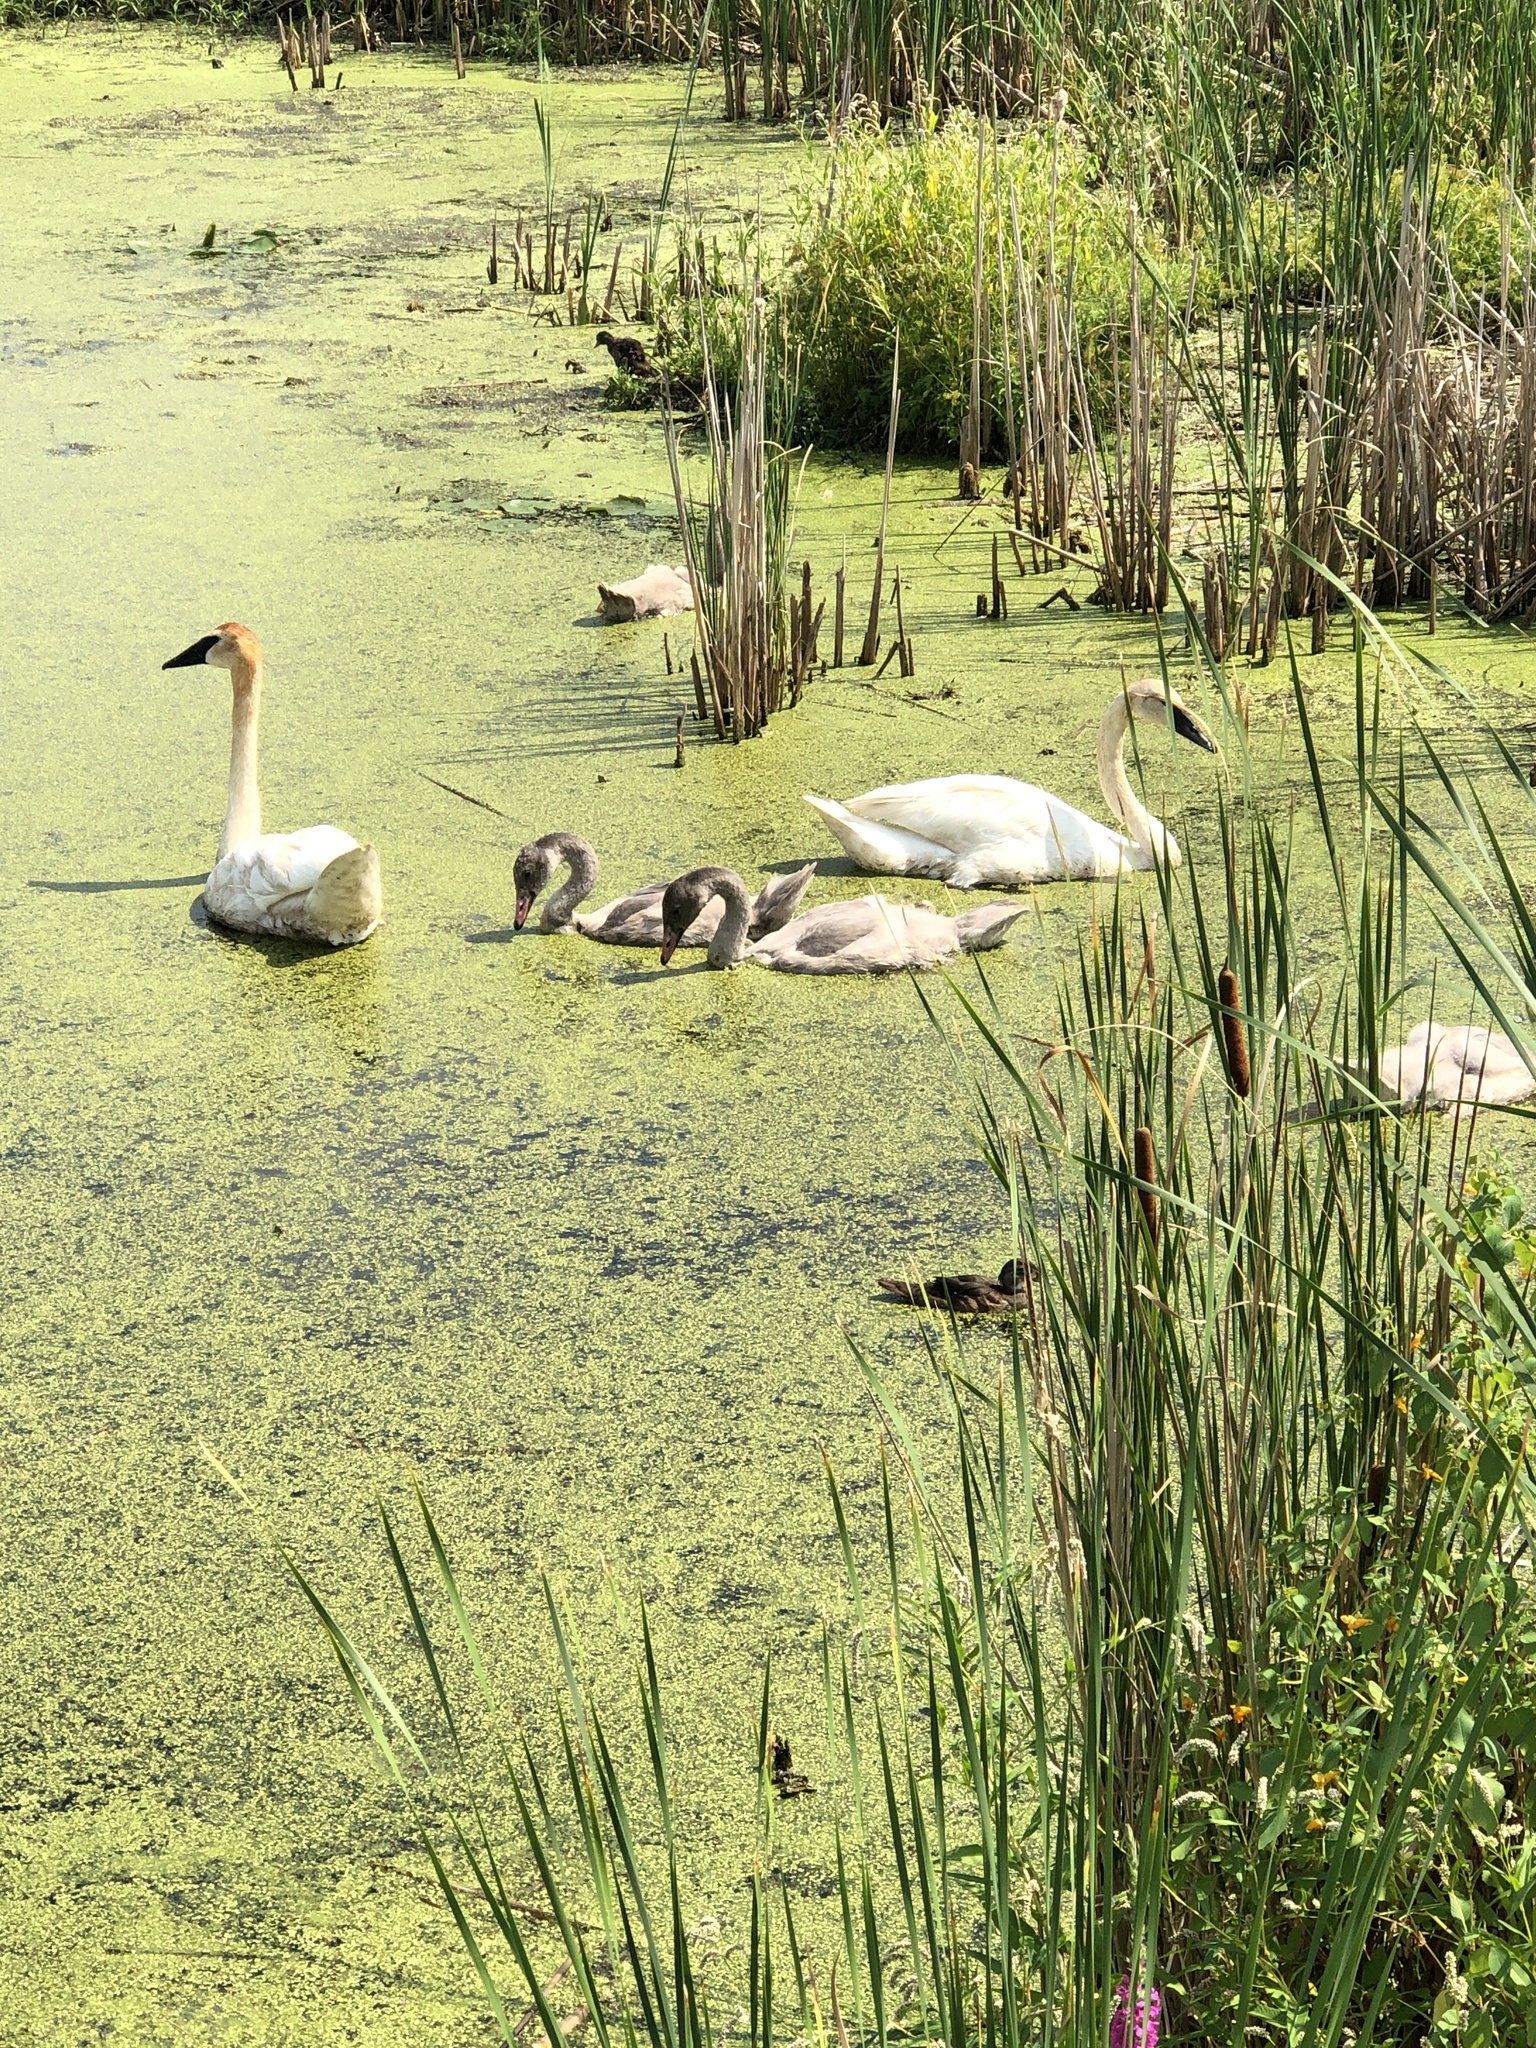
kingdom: Animalia
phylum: Chordata
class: Aves
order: Anseriformes
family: Anatidae
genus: Cygnus
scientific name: Cygnus buccinator
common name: Trumpeter swan
